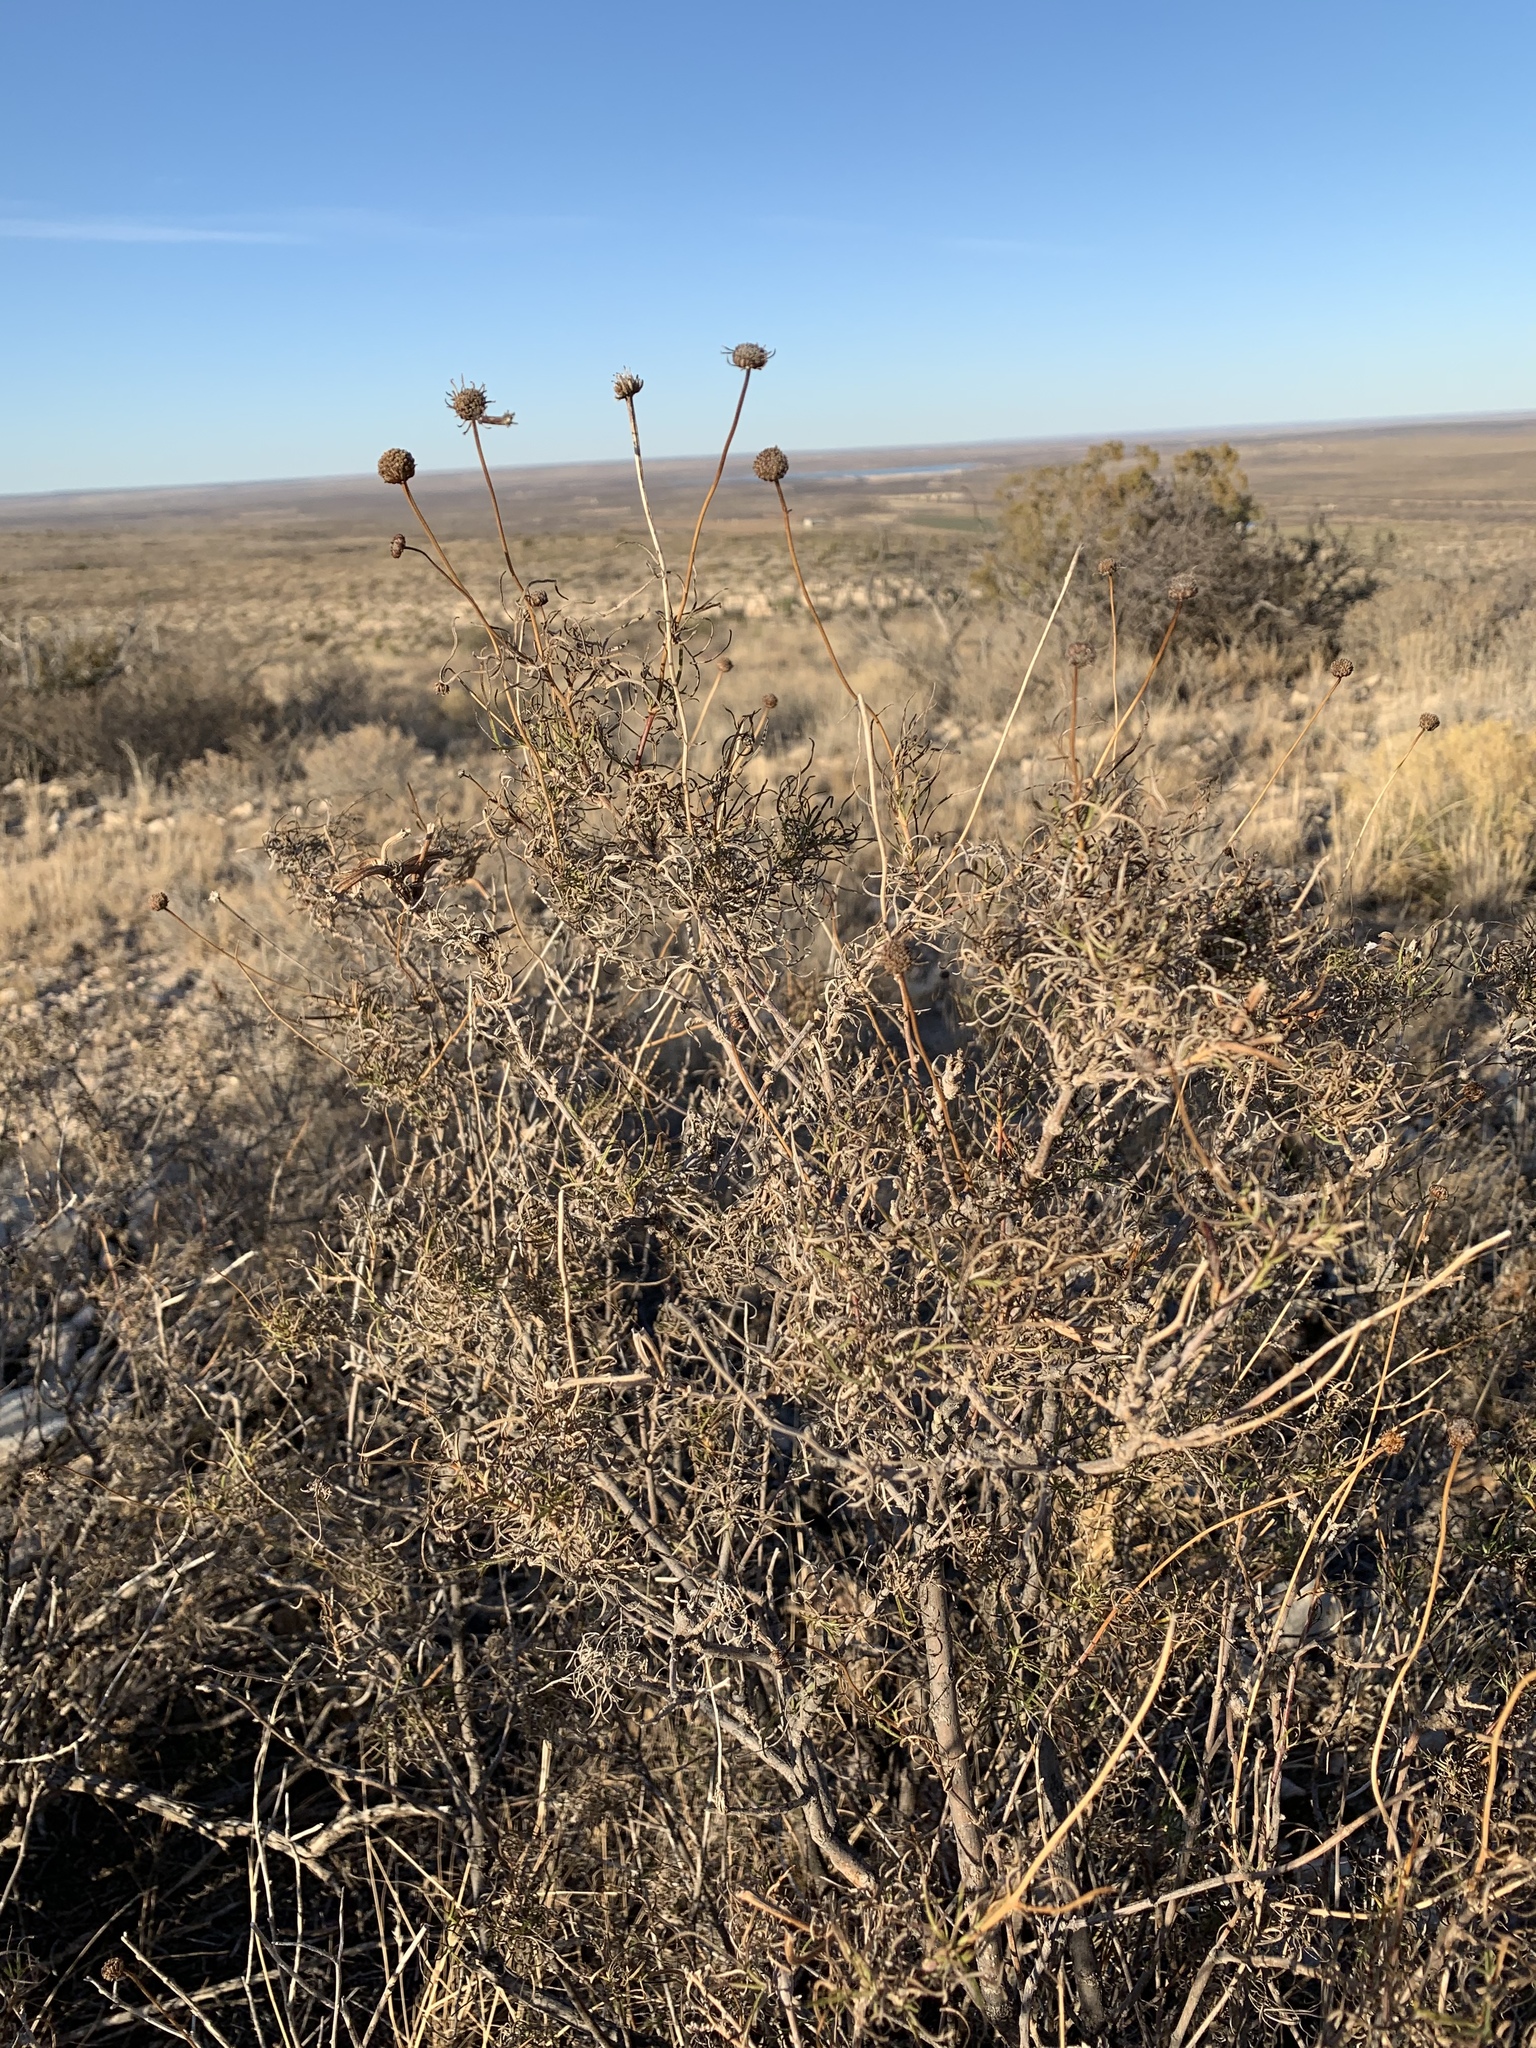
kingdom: Plantae
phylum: Tracheophyta
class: Magnoliopsida
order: Asterales
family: Asteraceae
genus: Sidneya
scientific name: Sidneya tenuifolia
